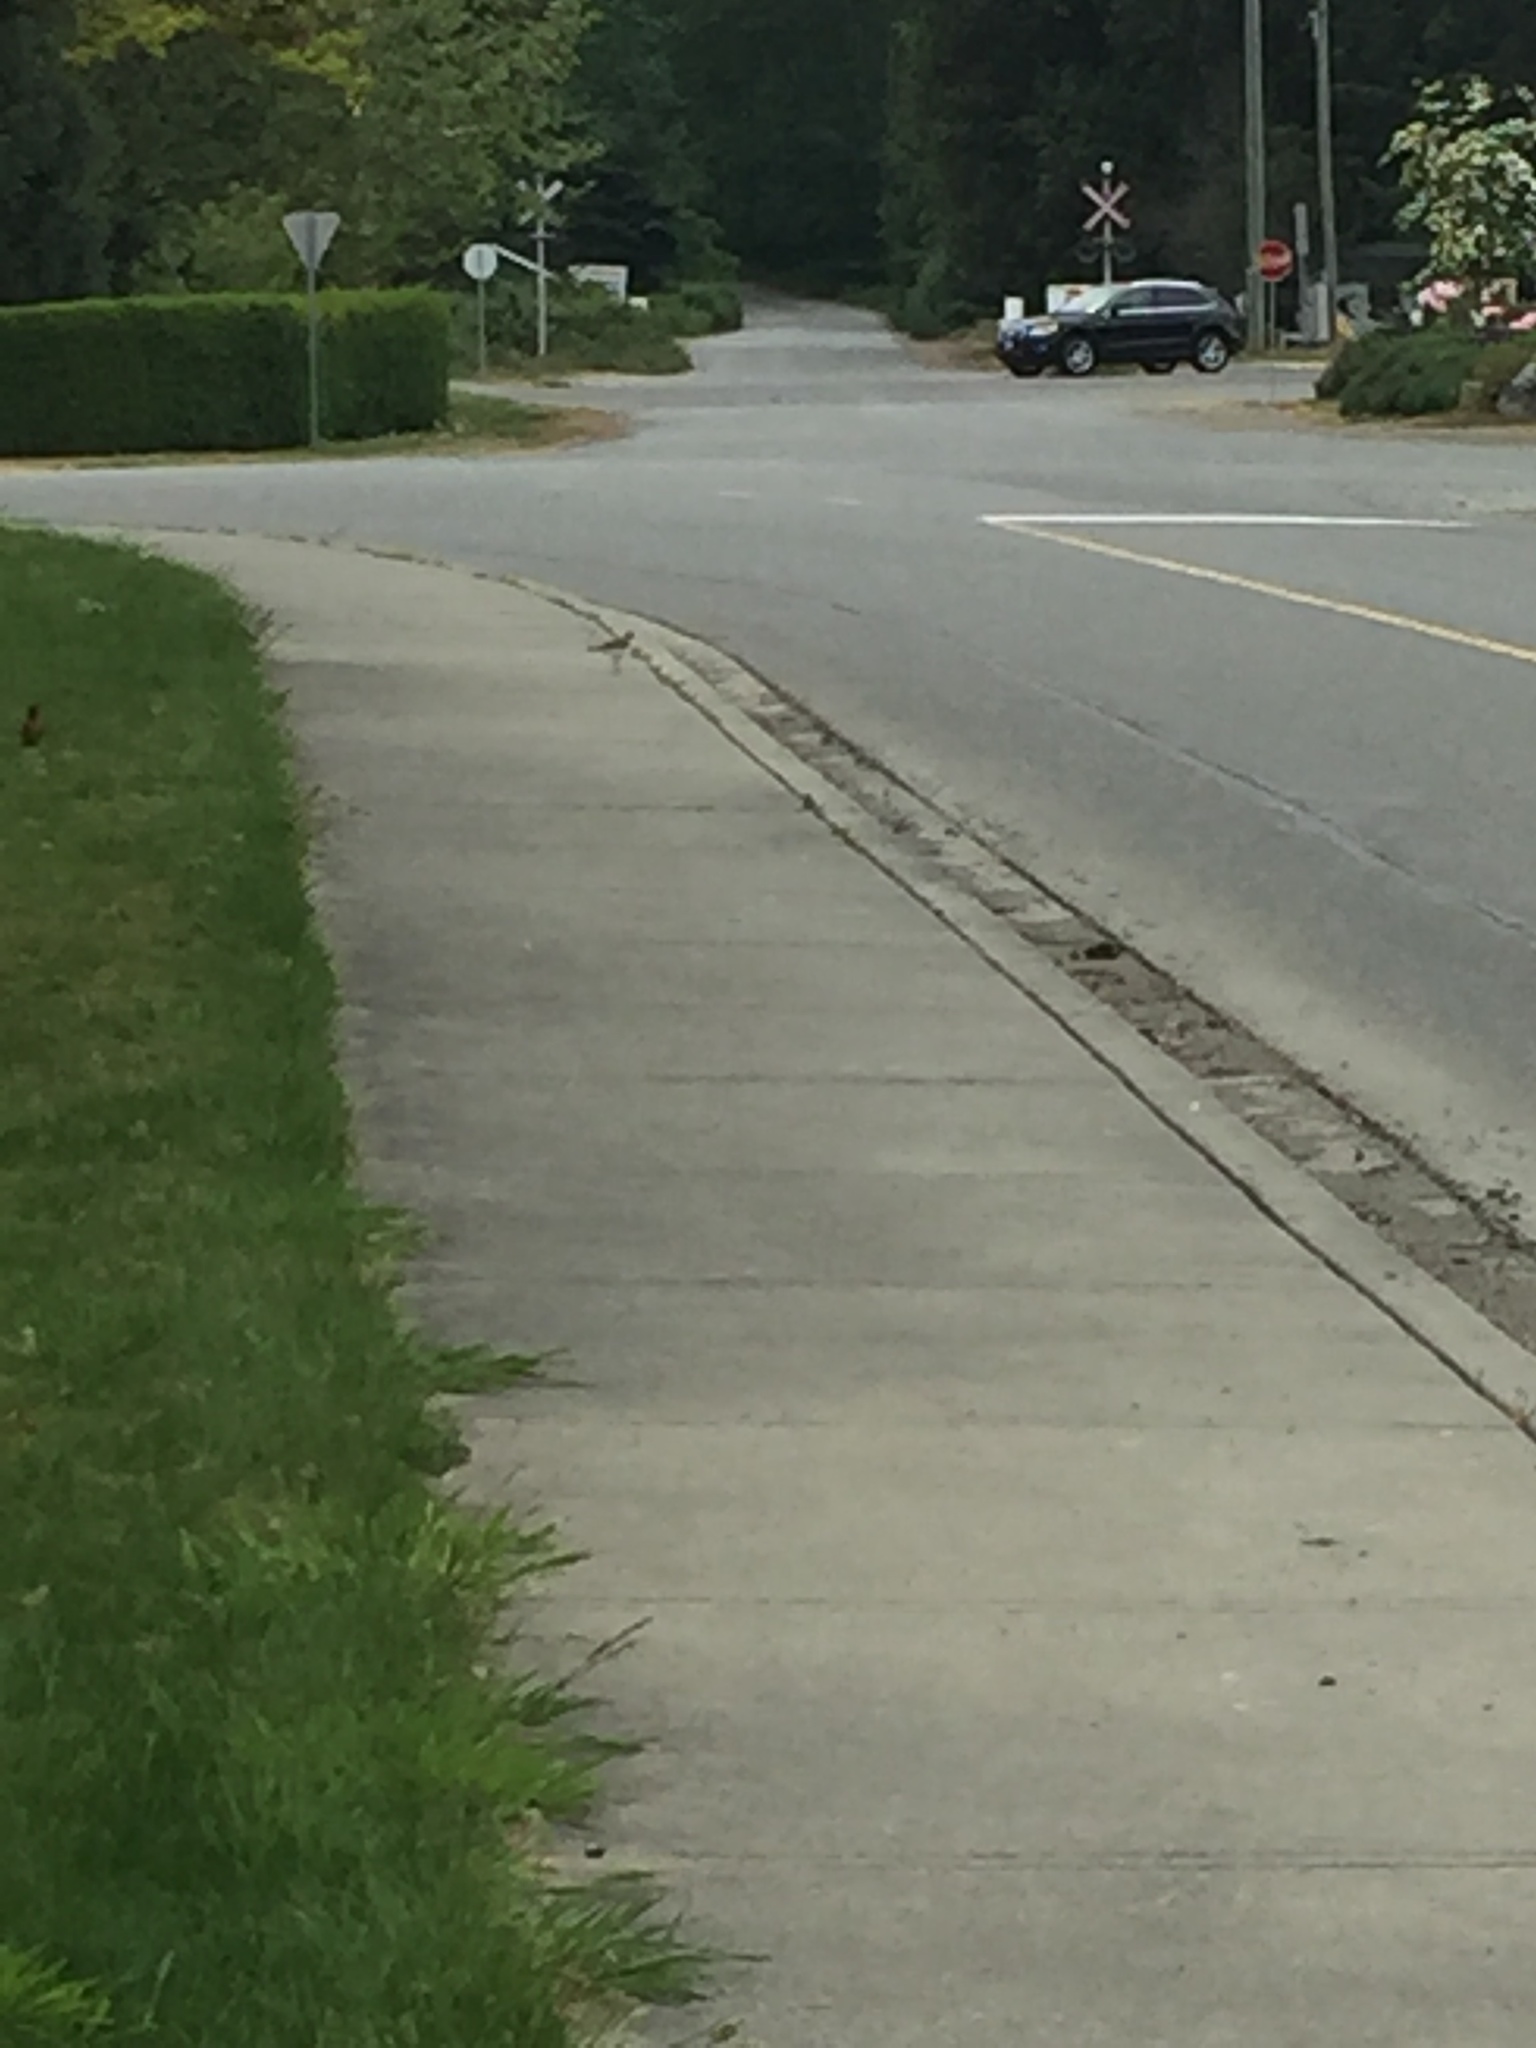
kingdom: Animalia
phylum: Chordata
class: Aves
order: Charadriiformes
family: Charadriidae
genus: Charadrius
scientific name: Charadrius vociferus
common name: Killdeer
